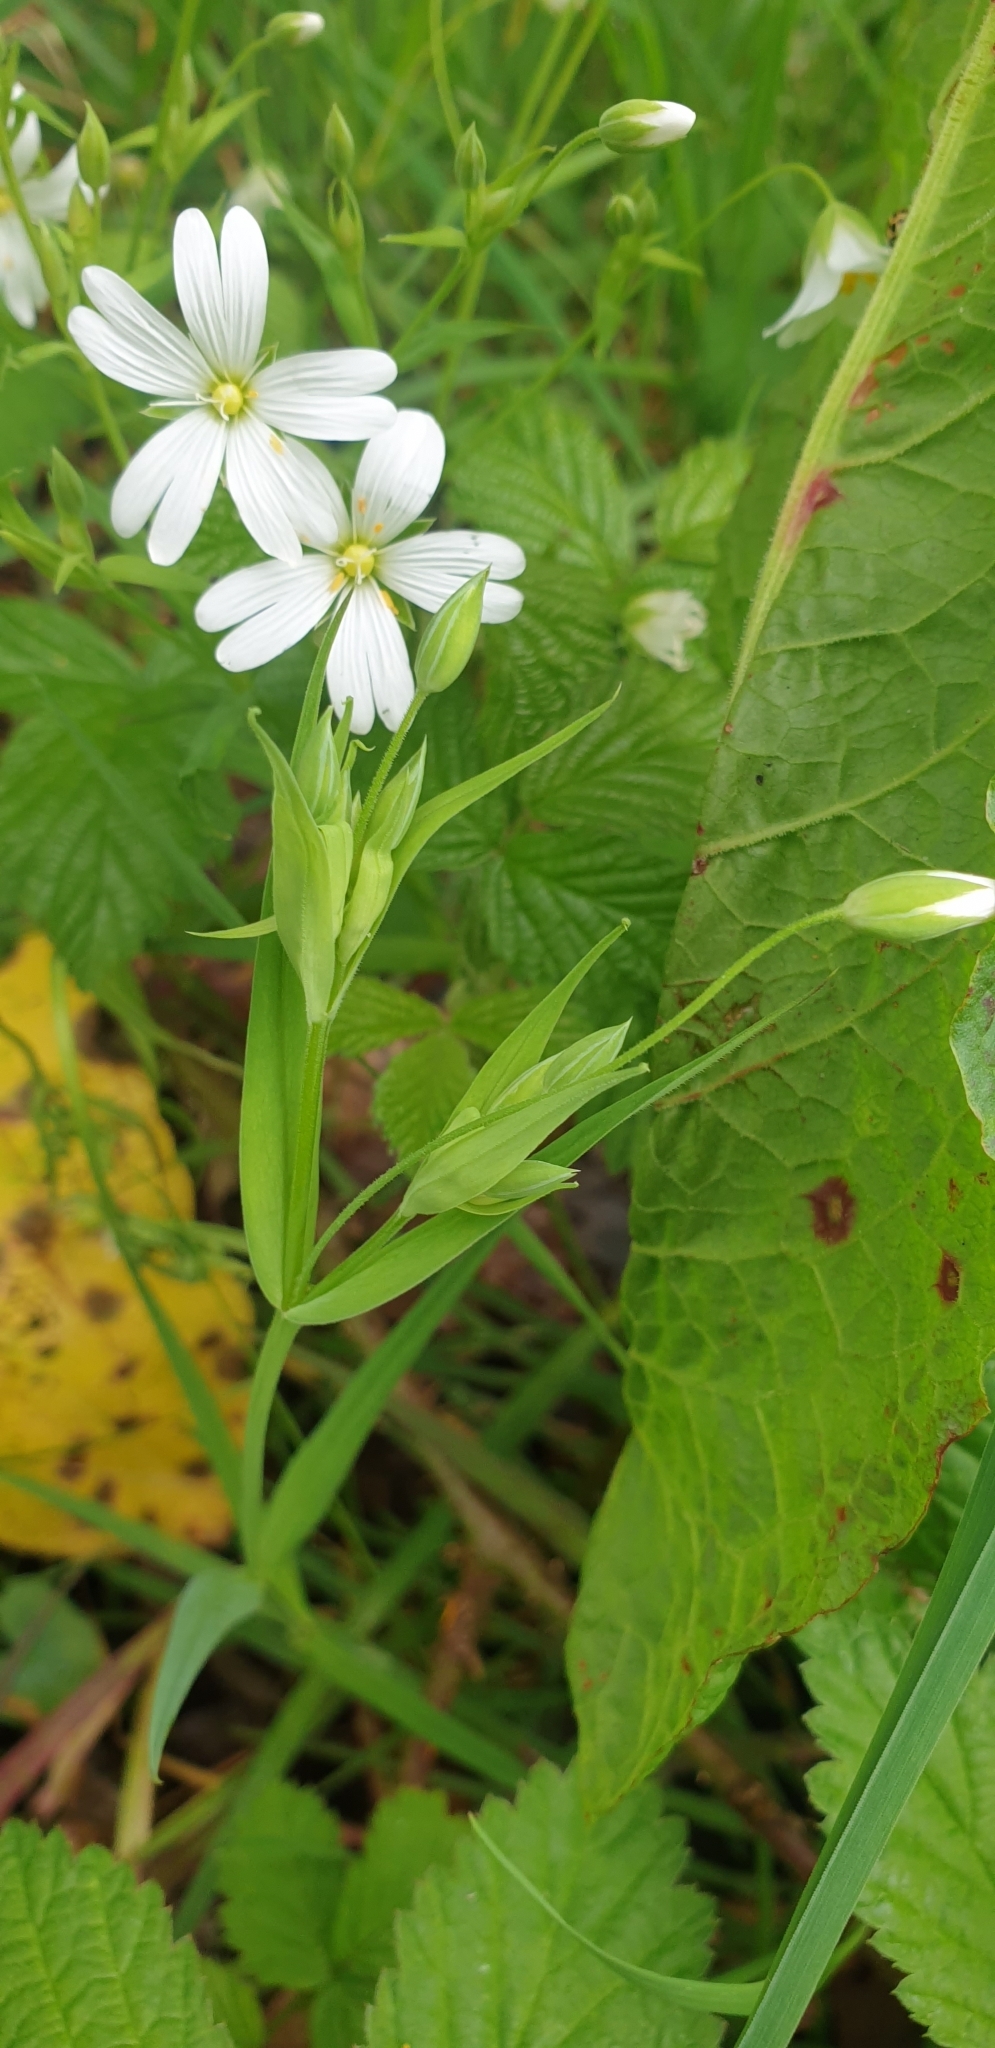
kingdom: Plantae
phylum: Tracheophyta
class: Magnoliopsida
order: Caryophyllales
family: Caryophyllaceae
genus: Rabelera
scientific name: Rabelera holostea
